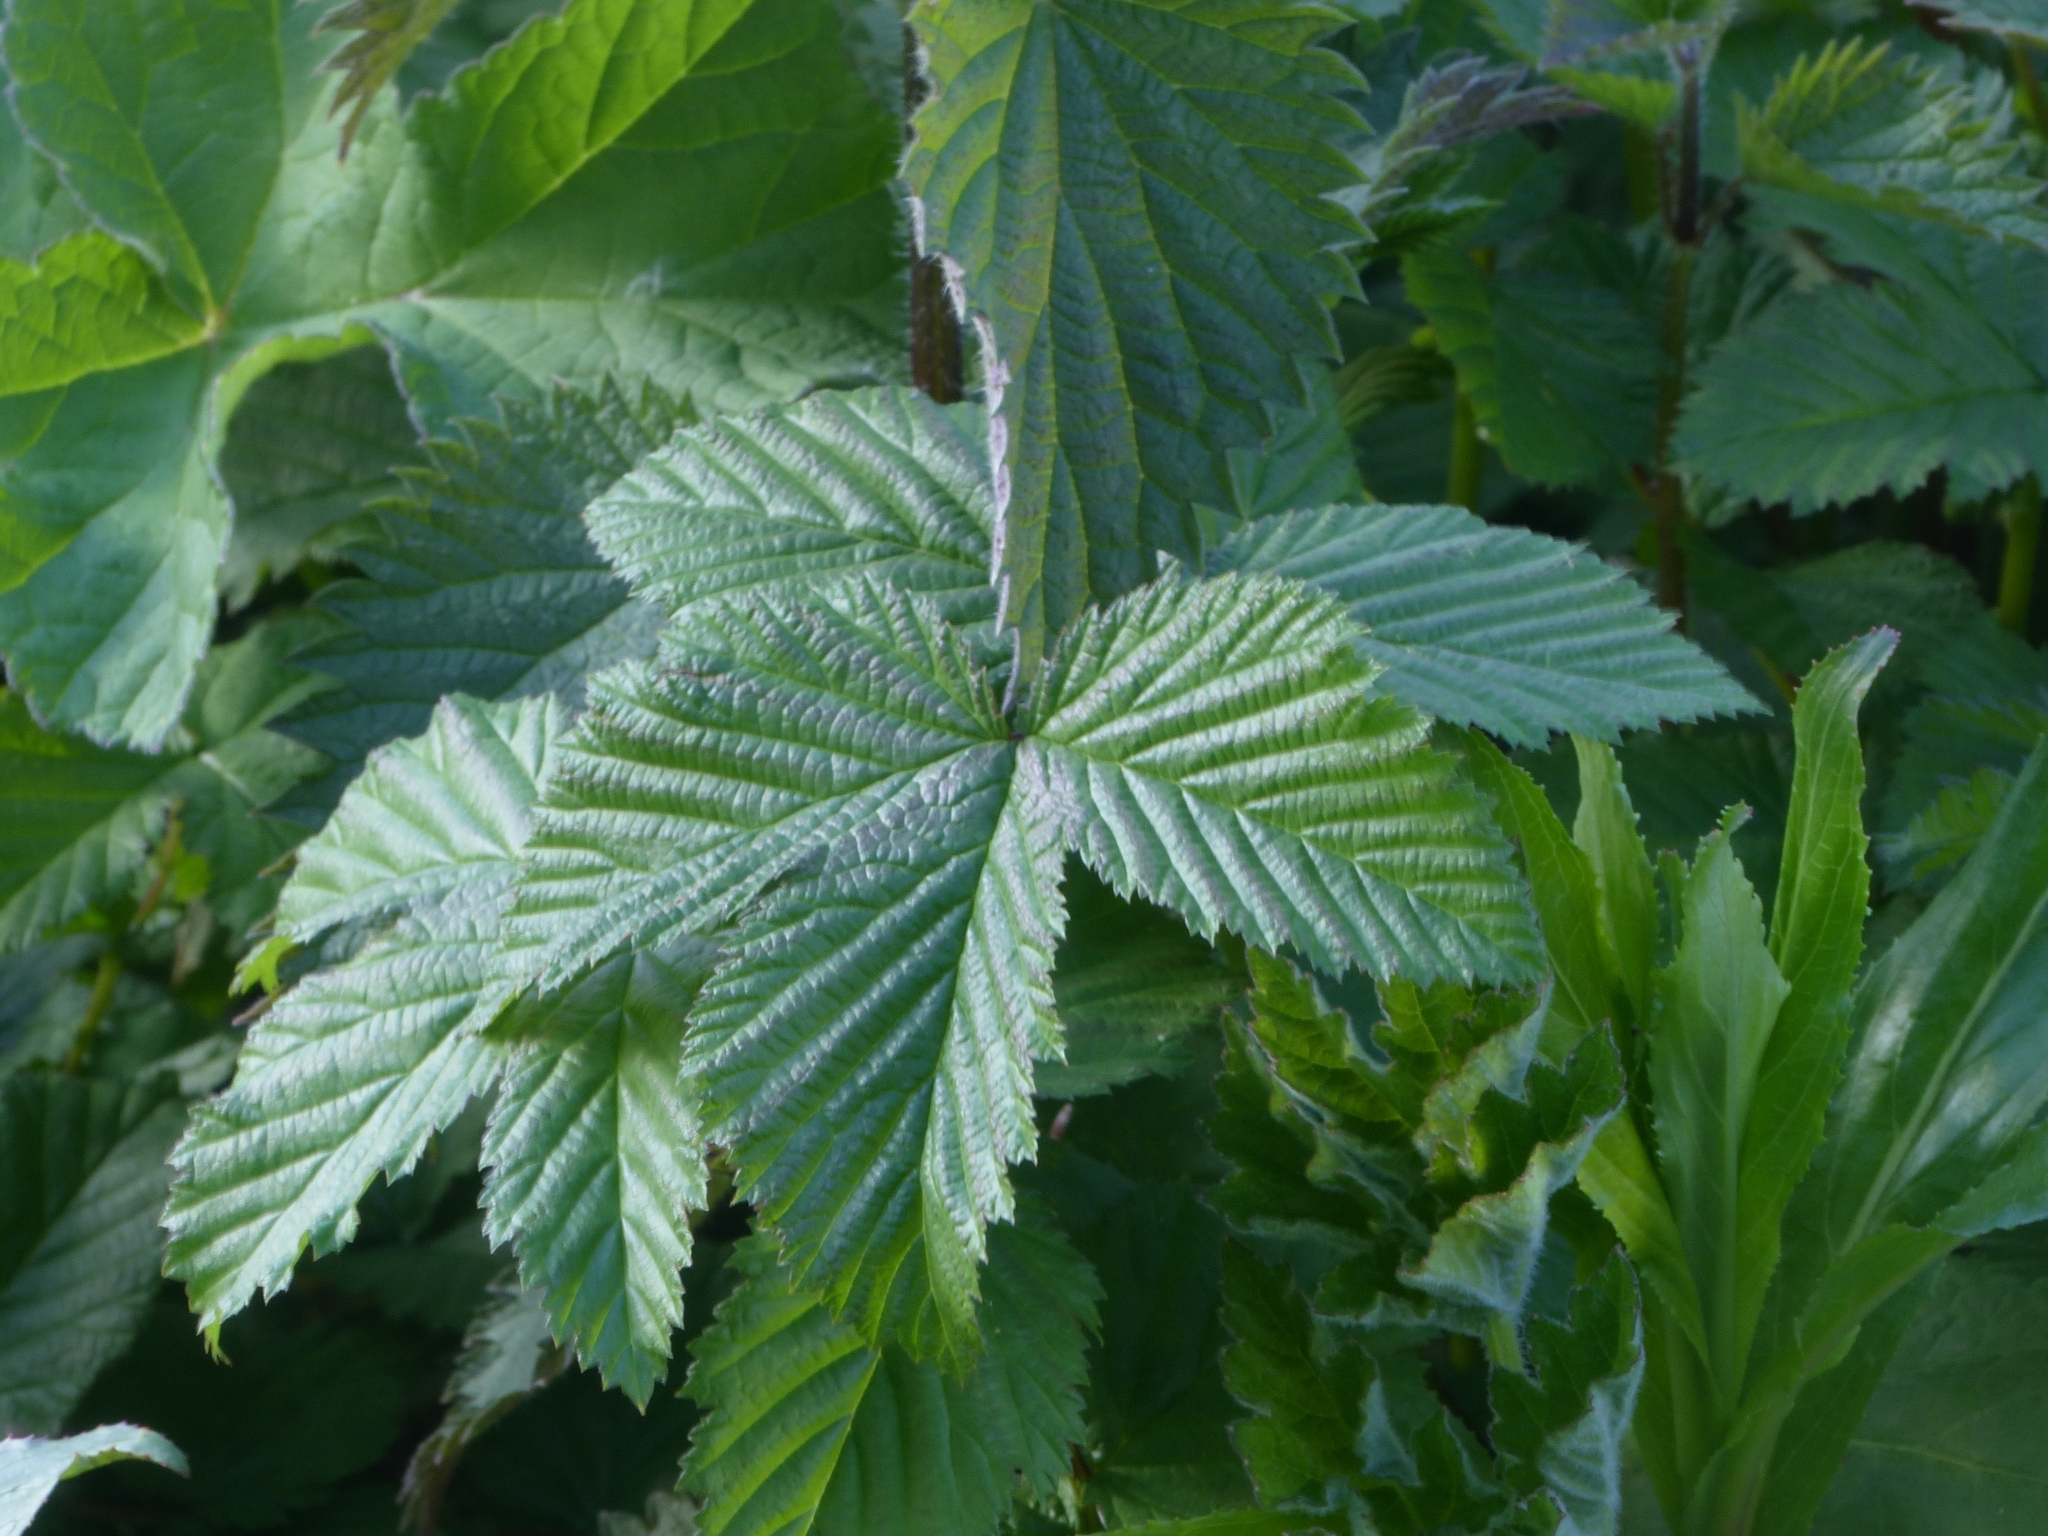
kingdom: Plantae
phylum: Tracheophyta
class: Magnoliopsida
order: Rosales
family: Urticaceae
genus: Urtica
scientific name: Urtica dioica
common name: Common nettle
